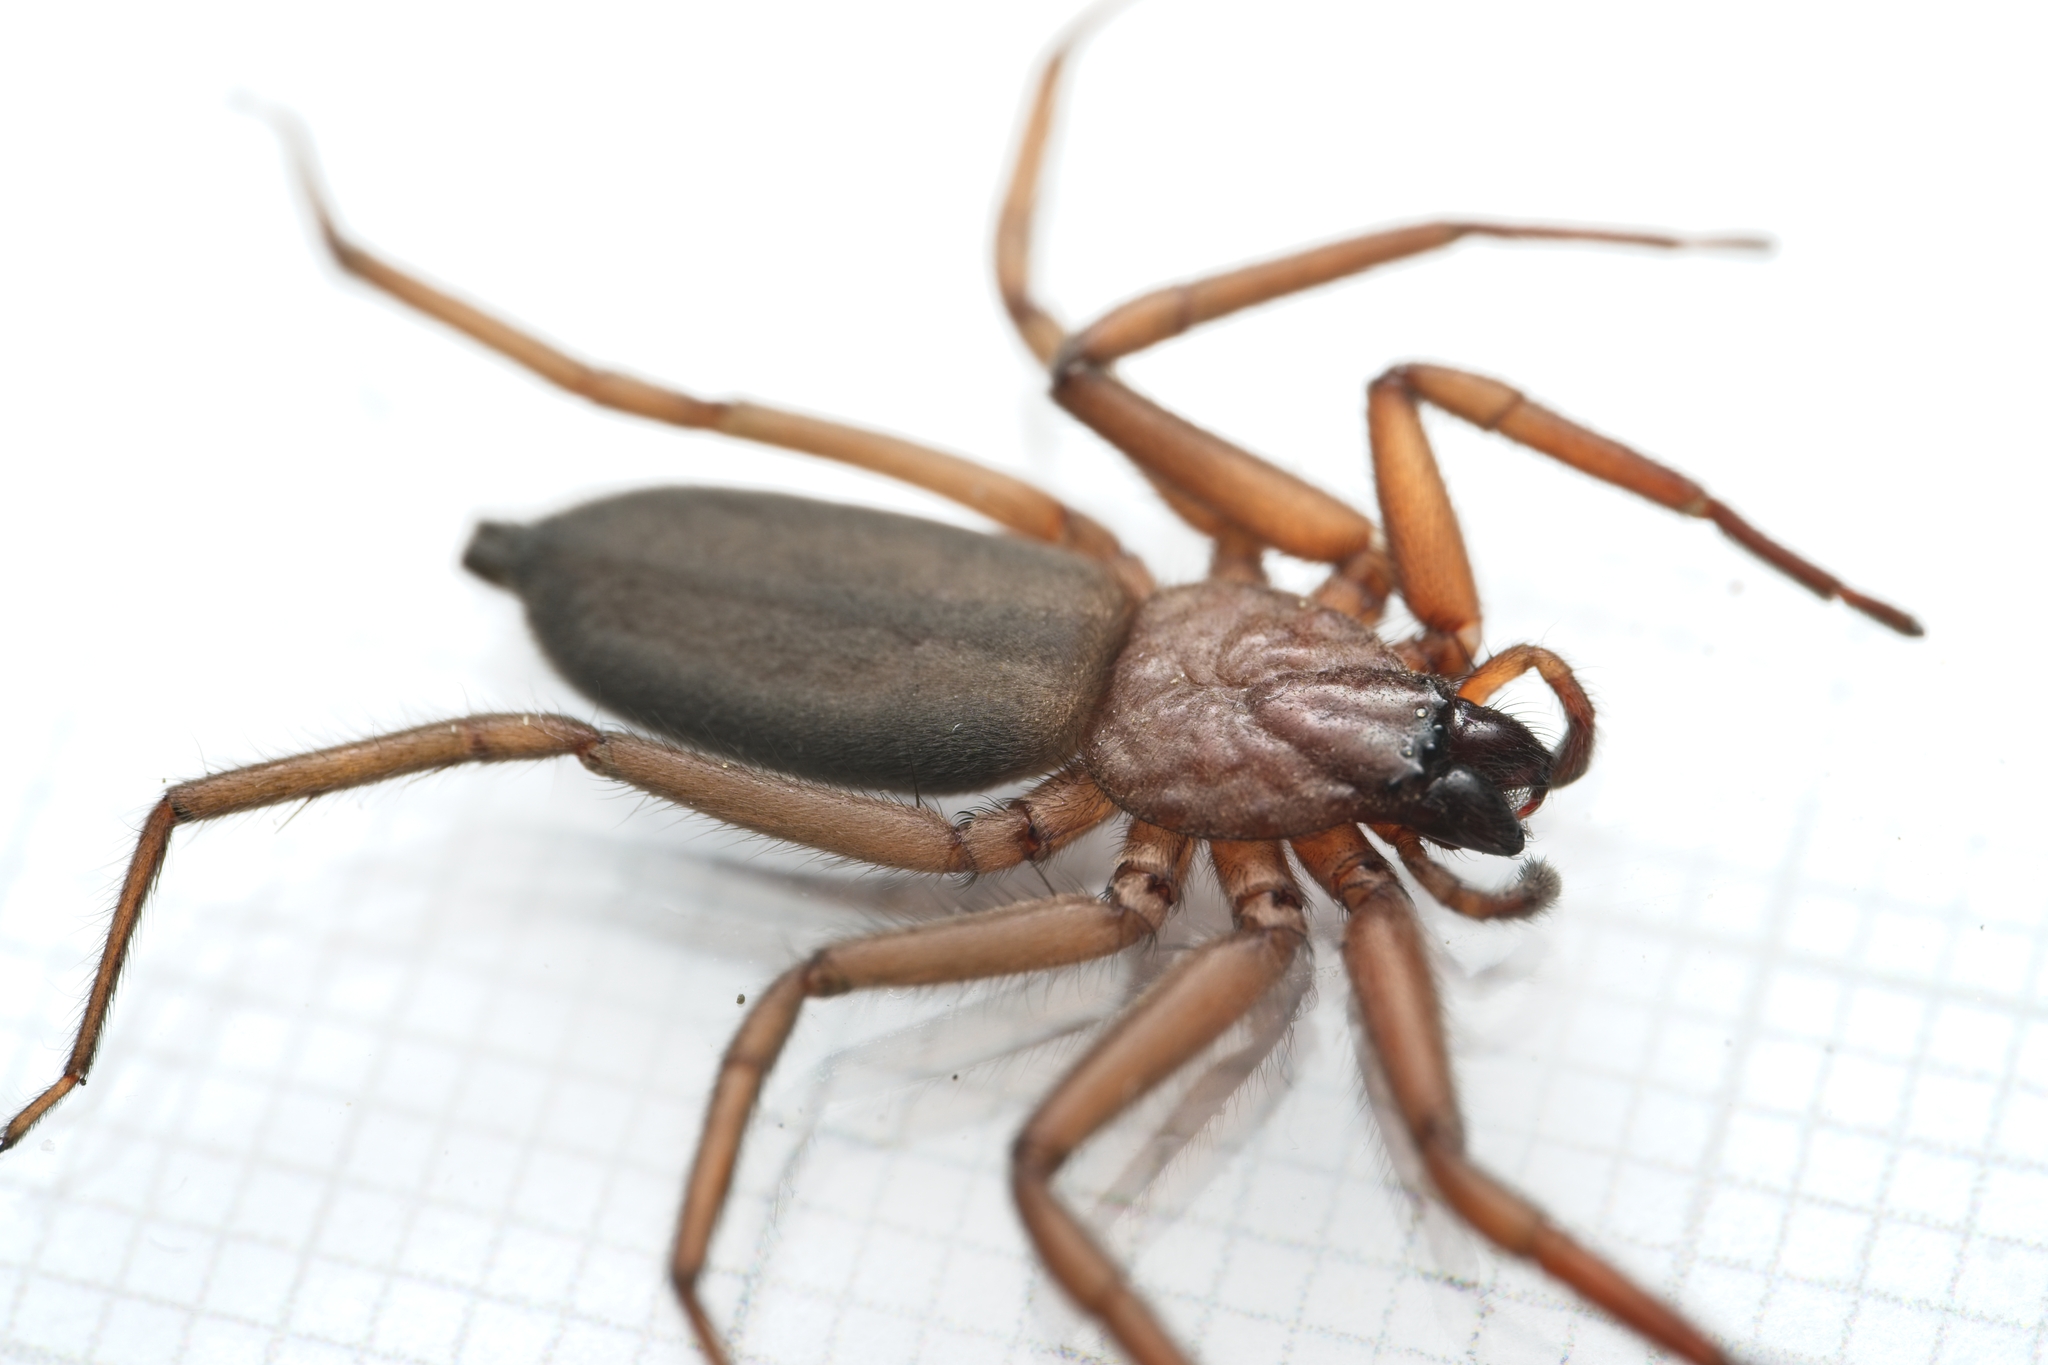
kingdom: Animalia
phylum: Arthropoda
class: Arachnida
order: Araneae
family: Trochanteriidae
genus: Hemicloea
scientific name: Hemicloea rogenhoferi
